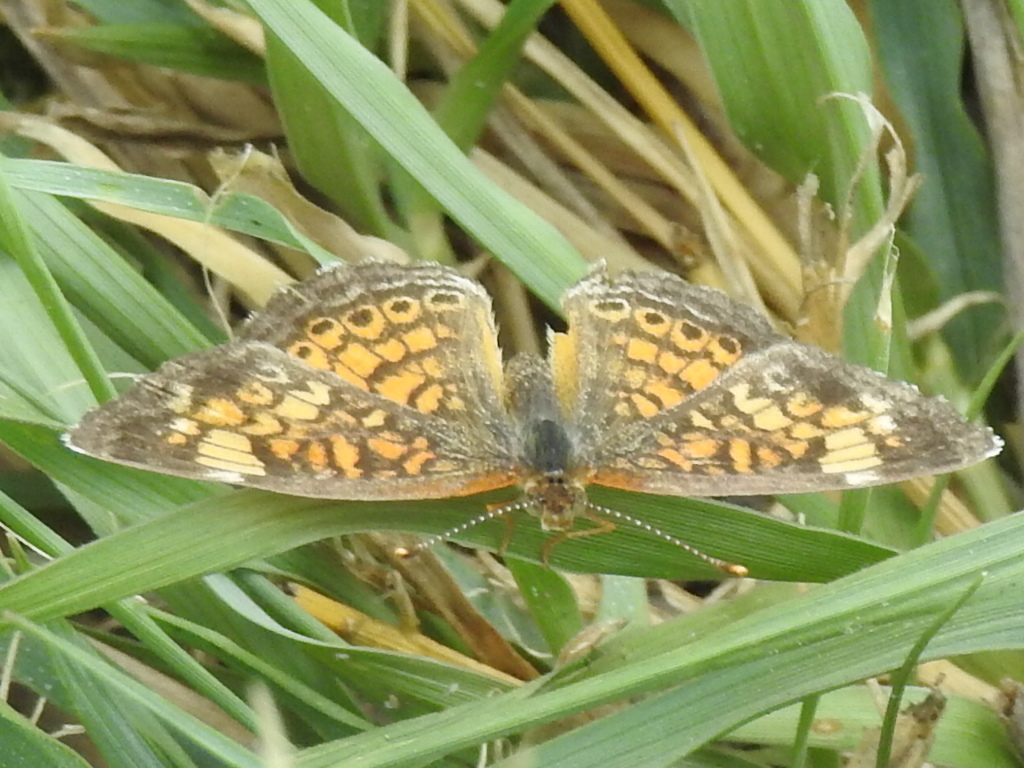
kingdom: Animalia
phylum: Arthropoda
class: Insecta
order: Lepidoptera
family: Nymphalidae
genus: Phyciodes
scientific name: Phyciodes tharos
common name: Pearl crescent
